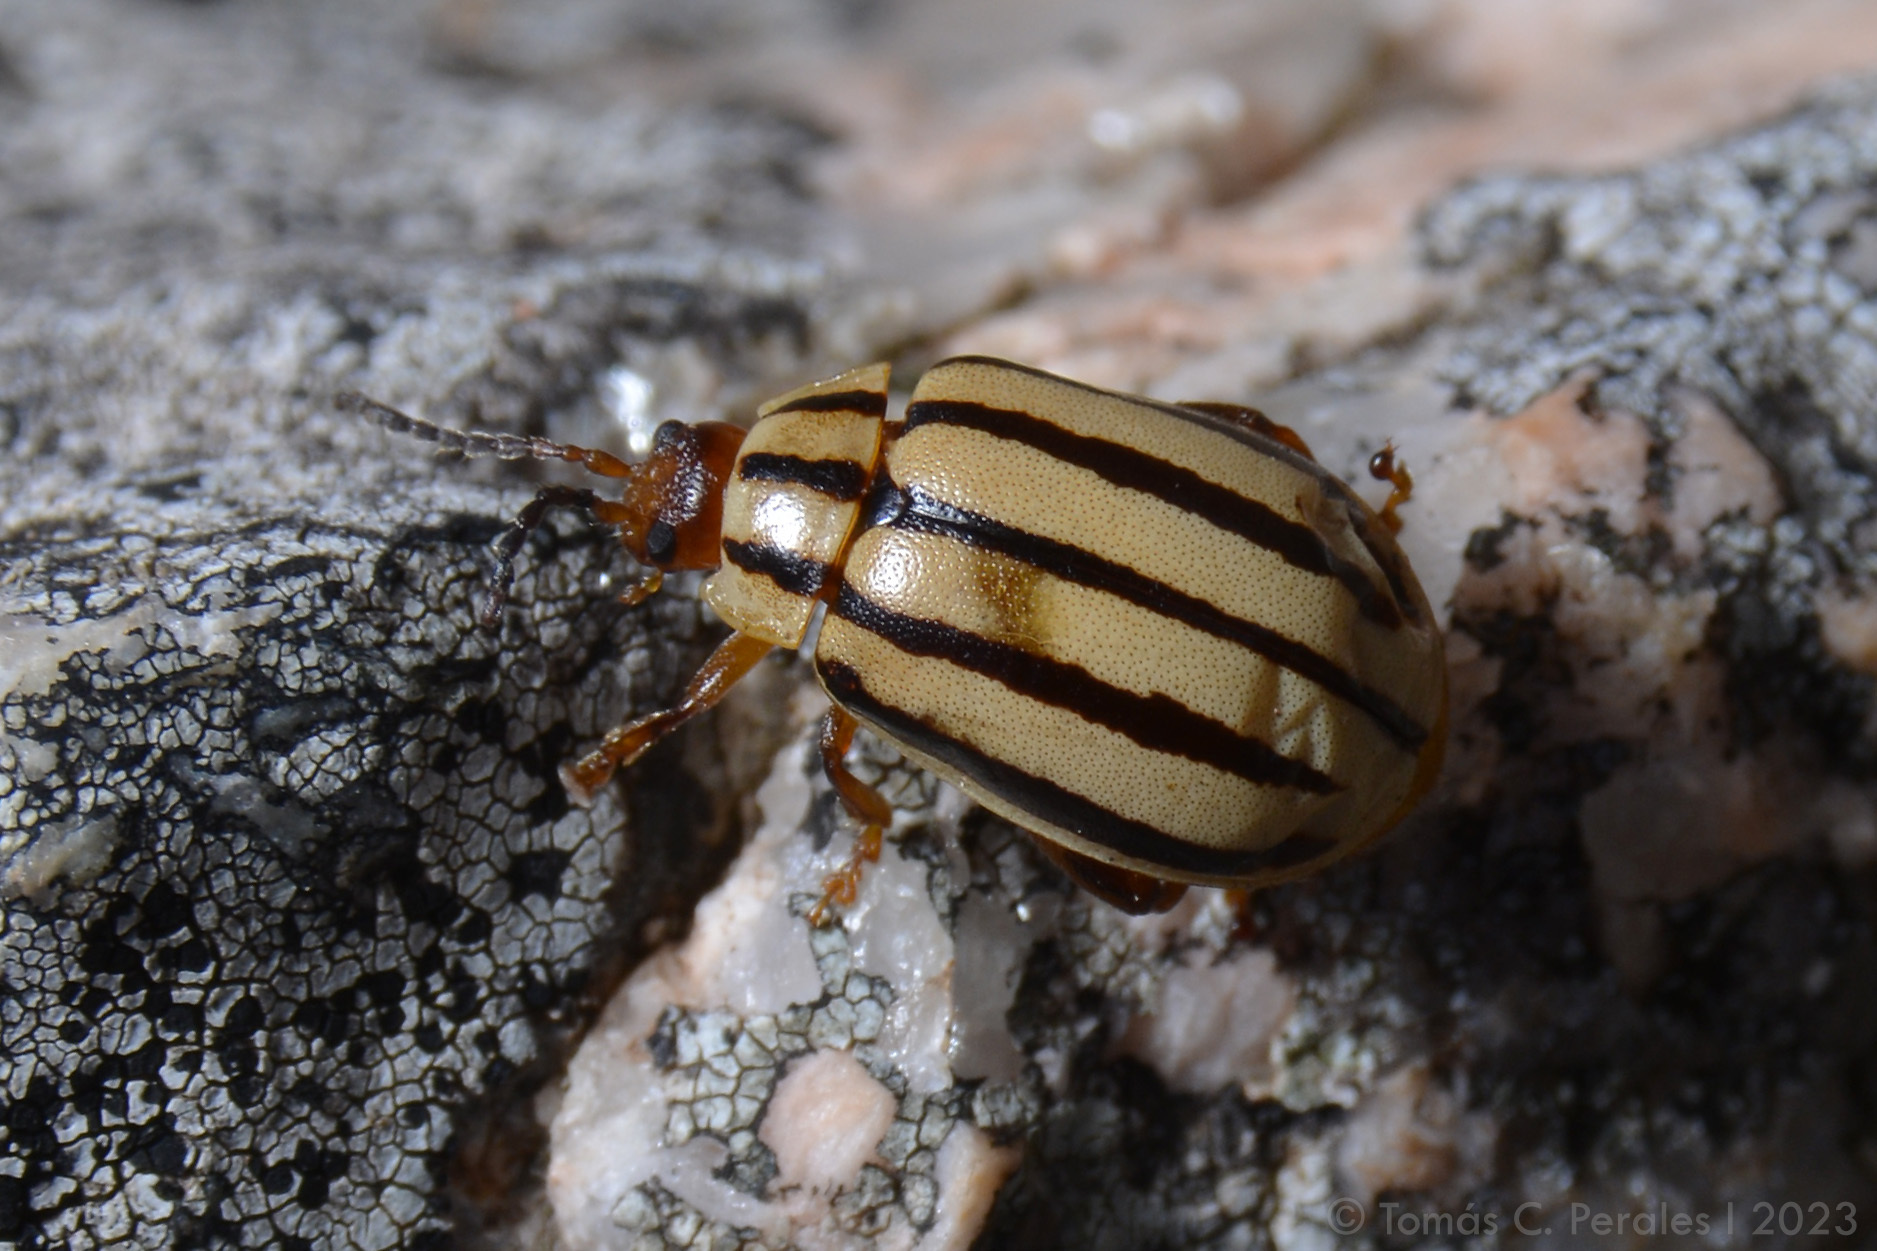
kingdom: Animalia
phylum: Arthropoda
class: Insecta
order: Coleoptera
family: Chrysomelidae
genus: Kuschelina
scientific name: Kuschelina
